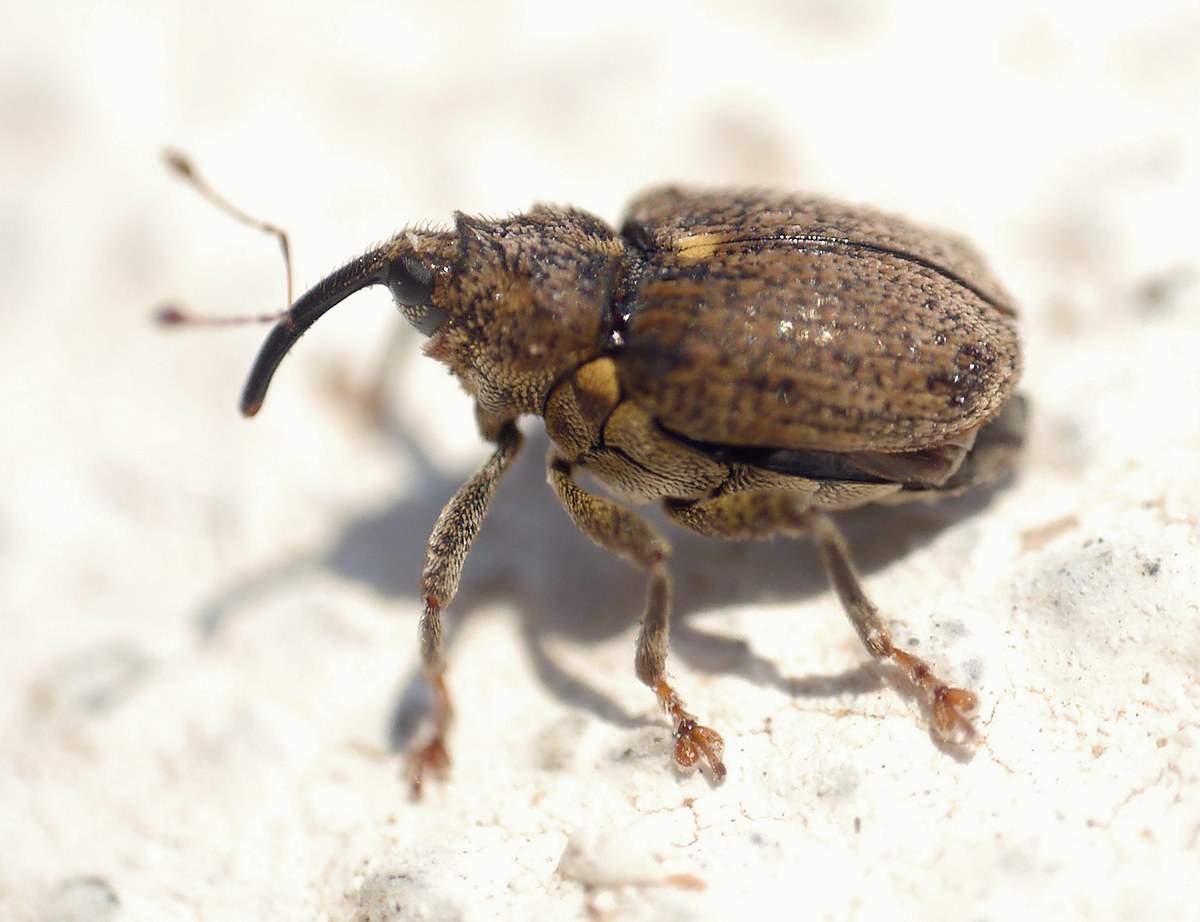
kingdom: Animalia
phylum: Arthropoda
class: Insecta
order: Coleoptera
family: Curculionidae
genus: Ceutorhynchus
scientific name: Ceutorhynchus pallidactylus
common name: Cabbage stem weavil
